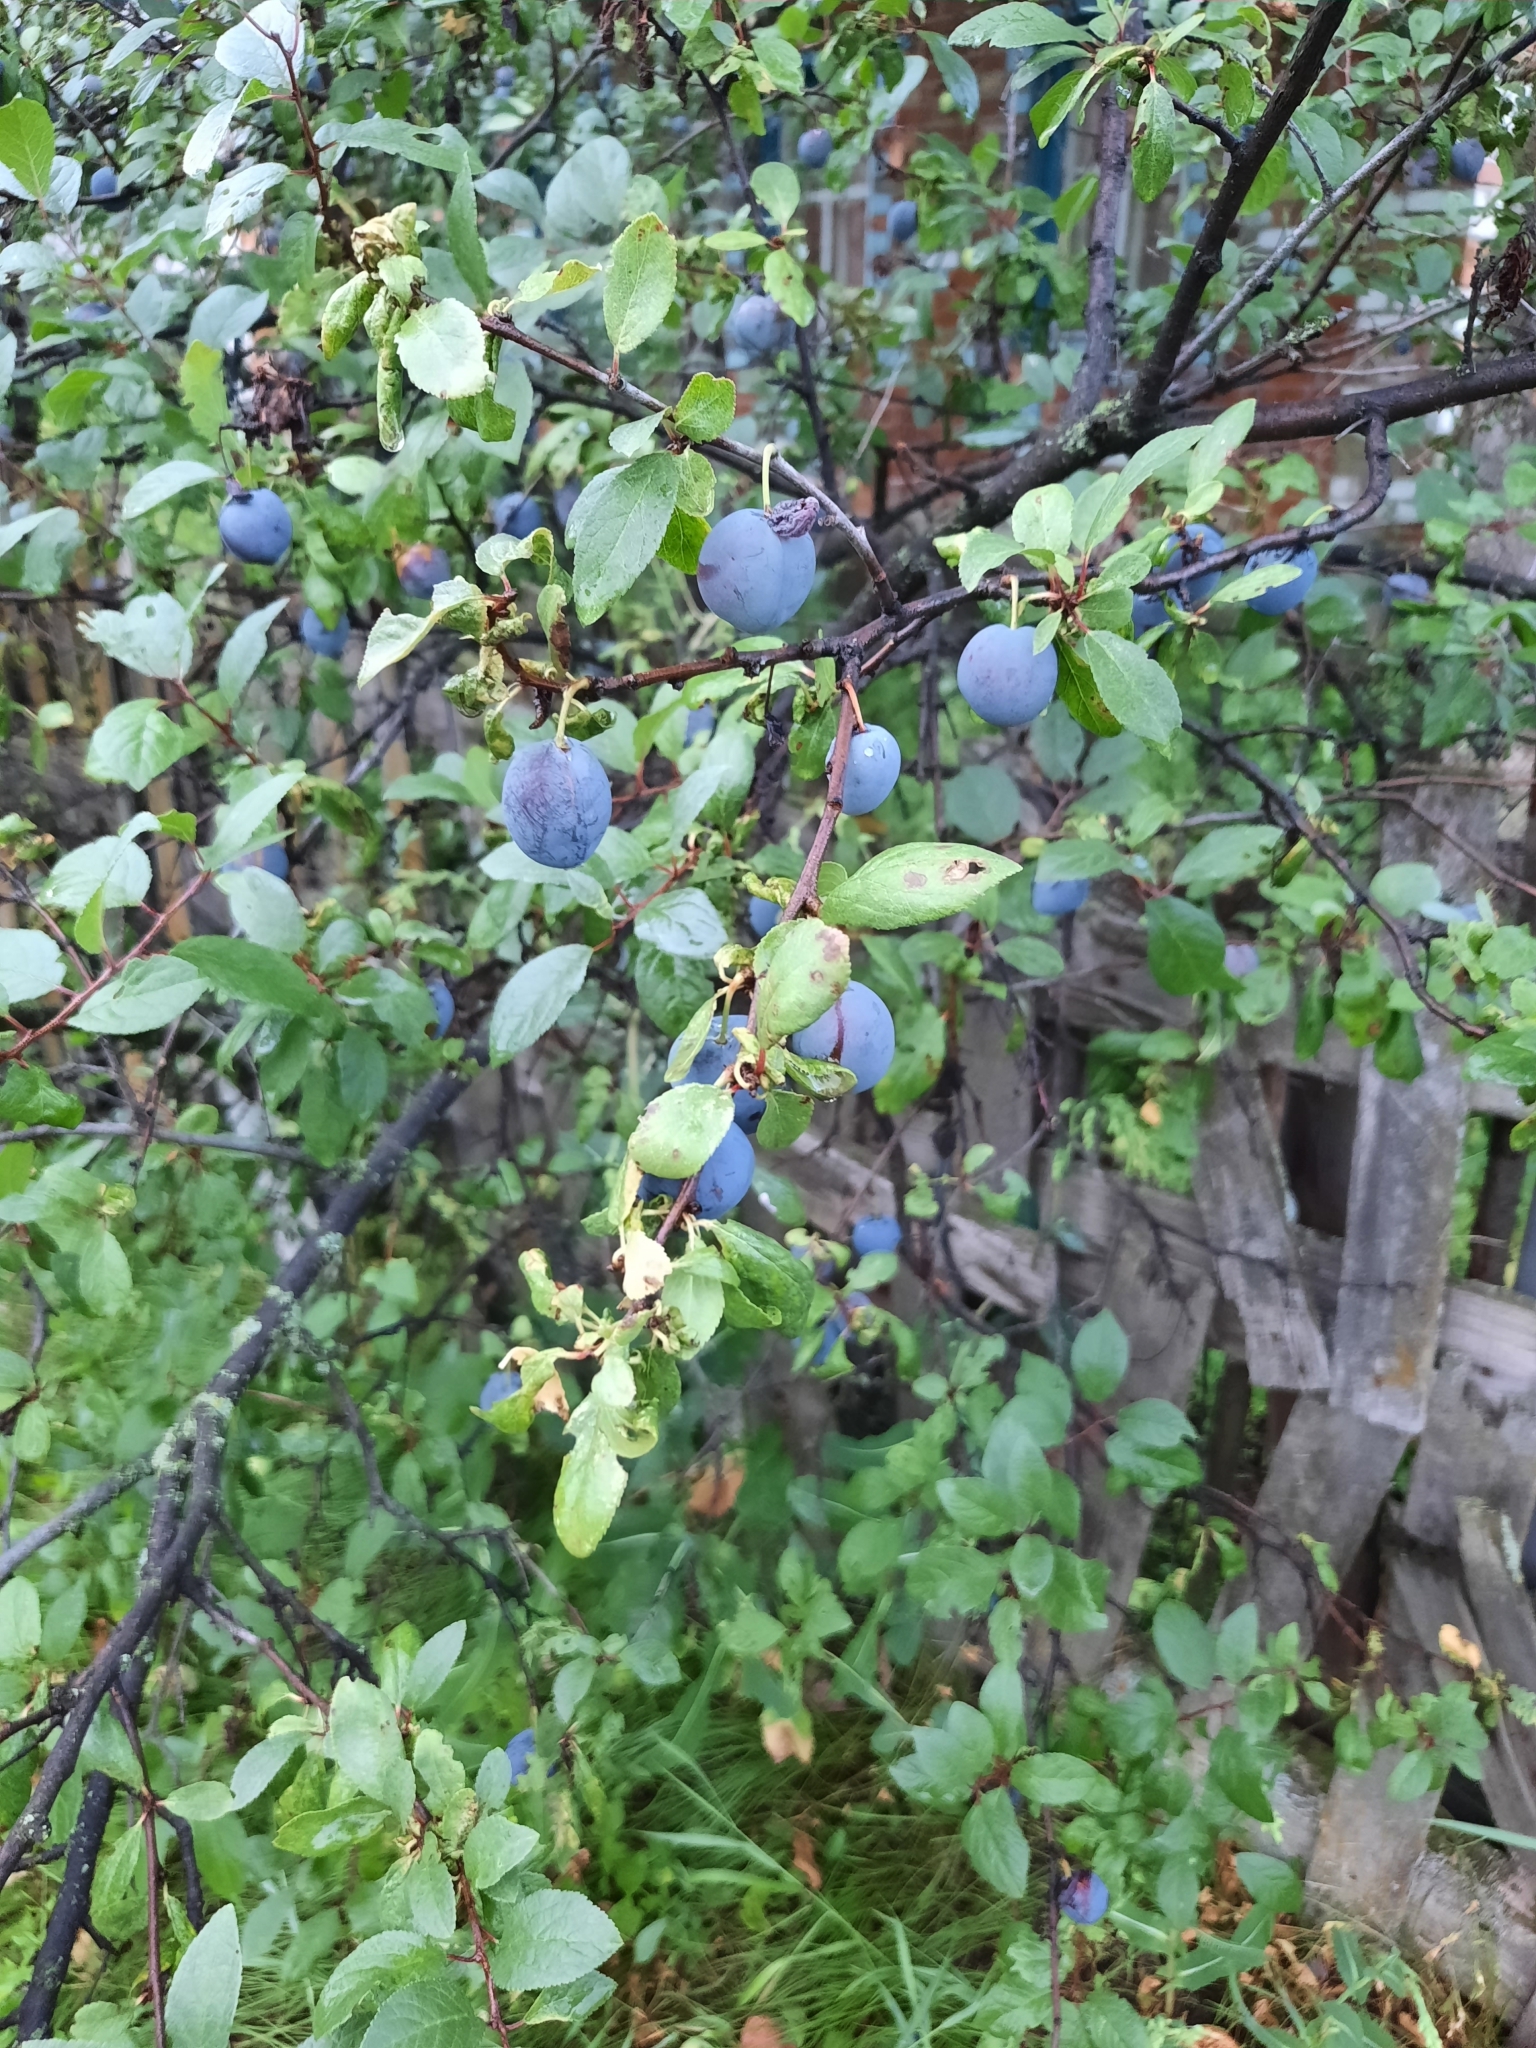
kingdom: Plantae
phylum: Tracheophyta
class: Magnoliopsida
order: Rosales
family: Rosaceae
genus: Prunus
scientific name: Prunus spinosa
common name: Blackthorn
